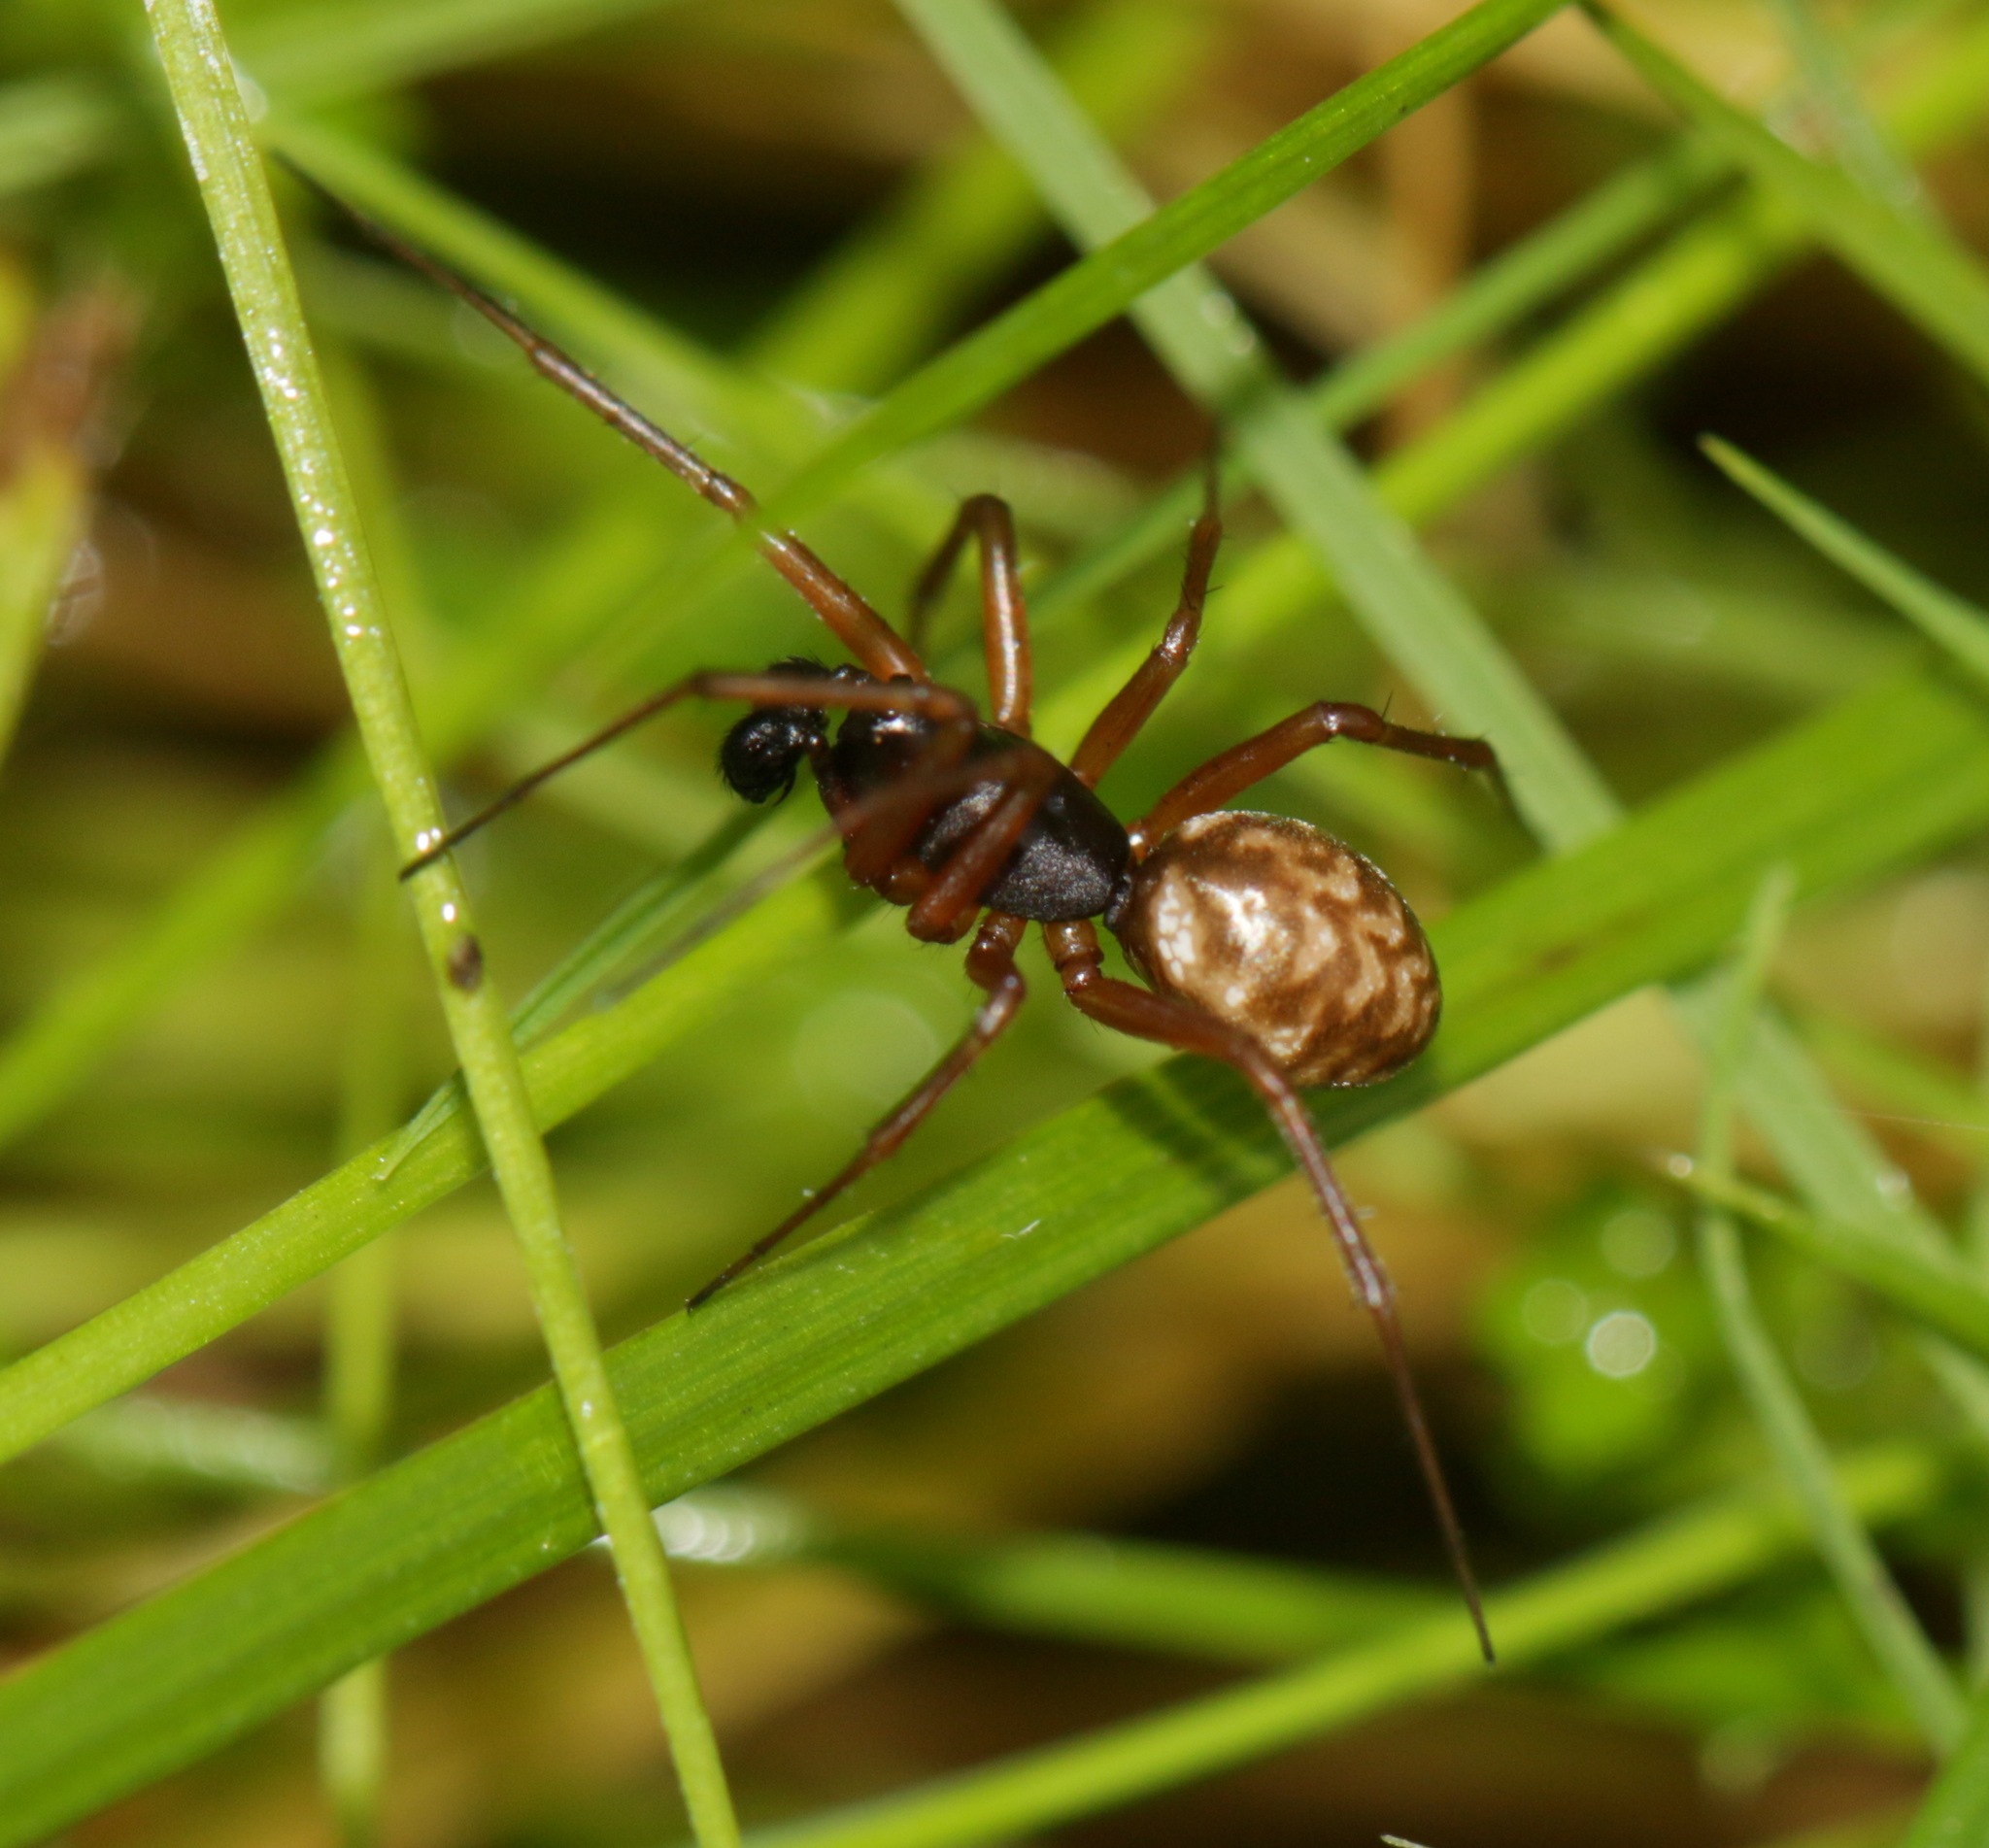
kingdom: Animalia
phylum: Arthropoda
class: Arachnida
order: Araneae
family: Linyphiidae
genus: Neriene
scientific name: Neriene clathrata
